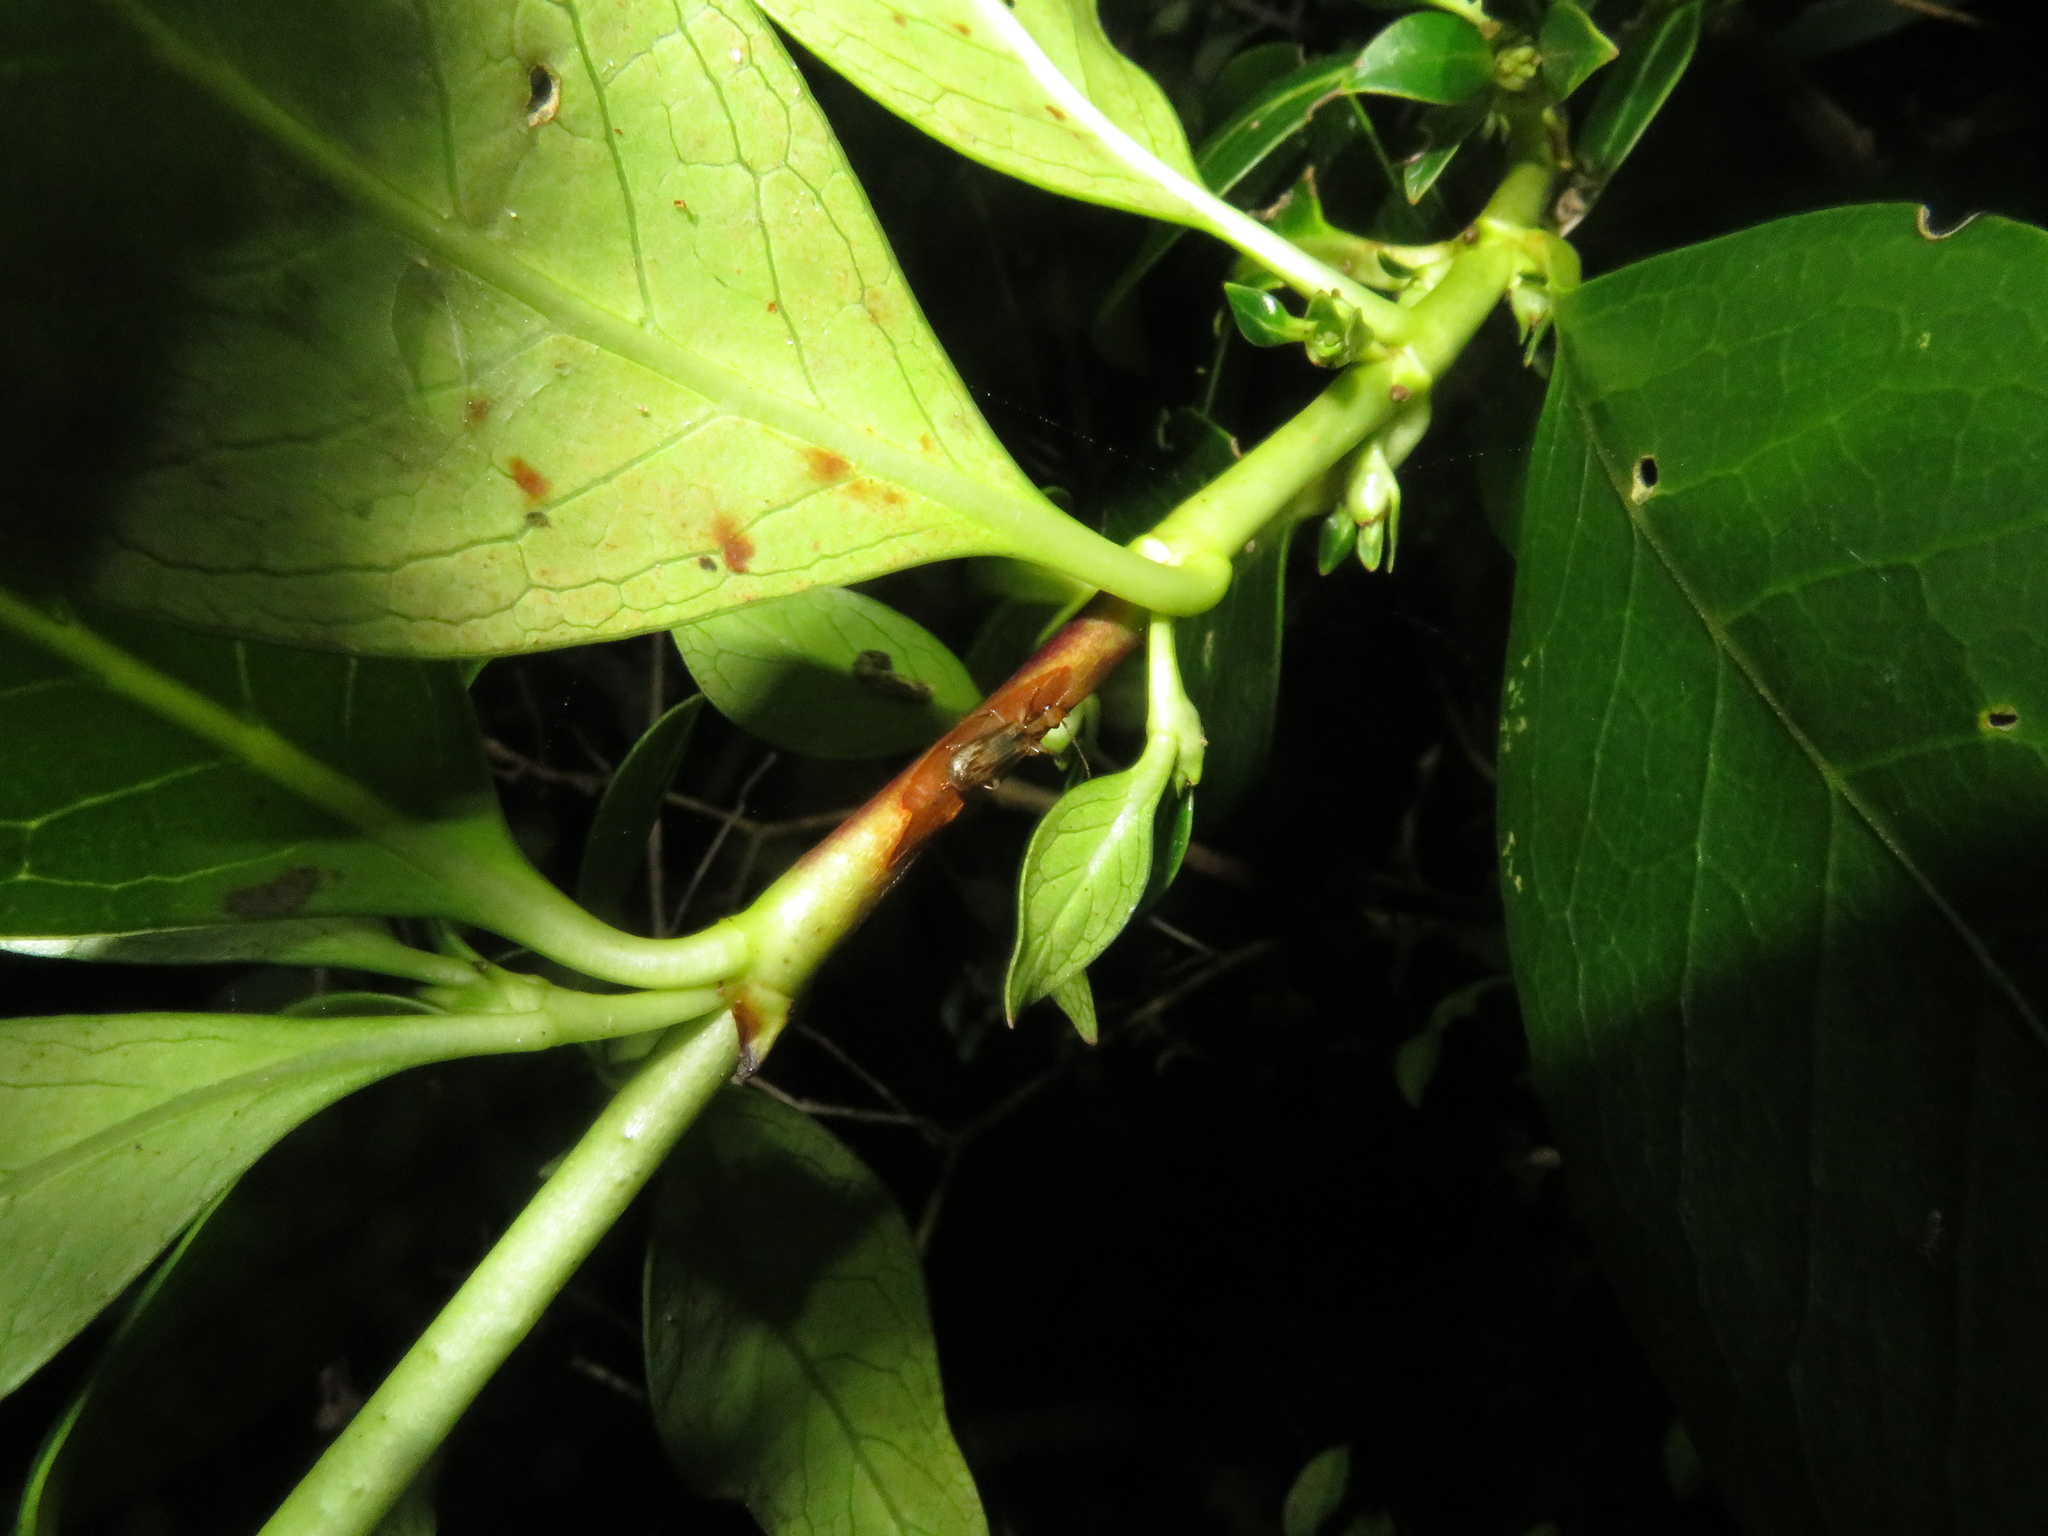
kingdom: Animalia
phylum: Arthropoda
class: Insecta
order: Coleoptera
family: Carabidae
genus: Demetrida
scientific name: Demetrida lineella
